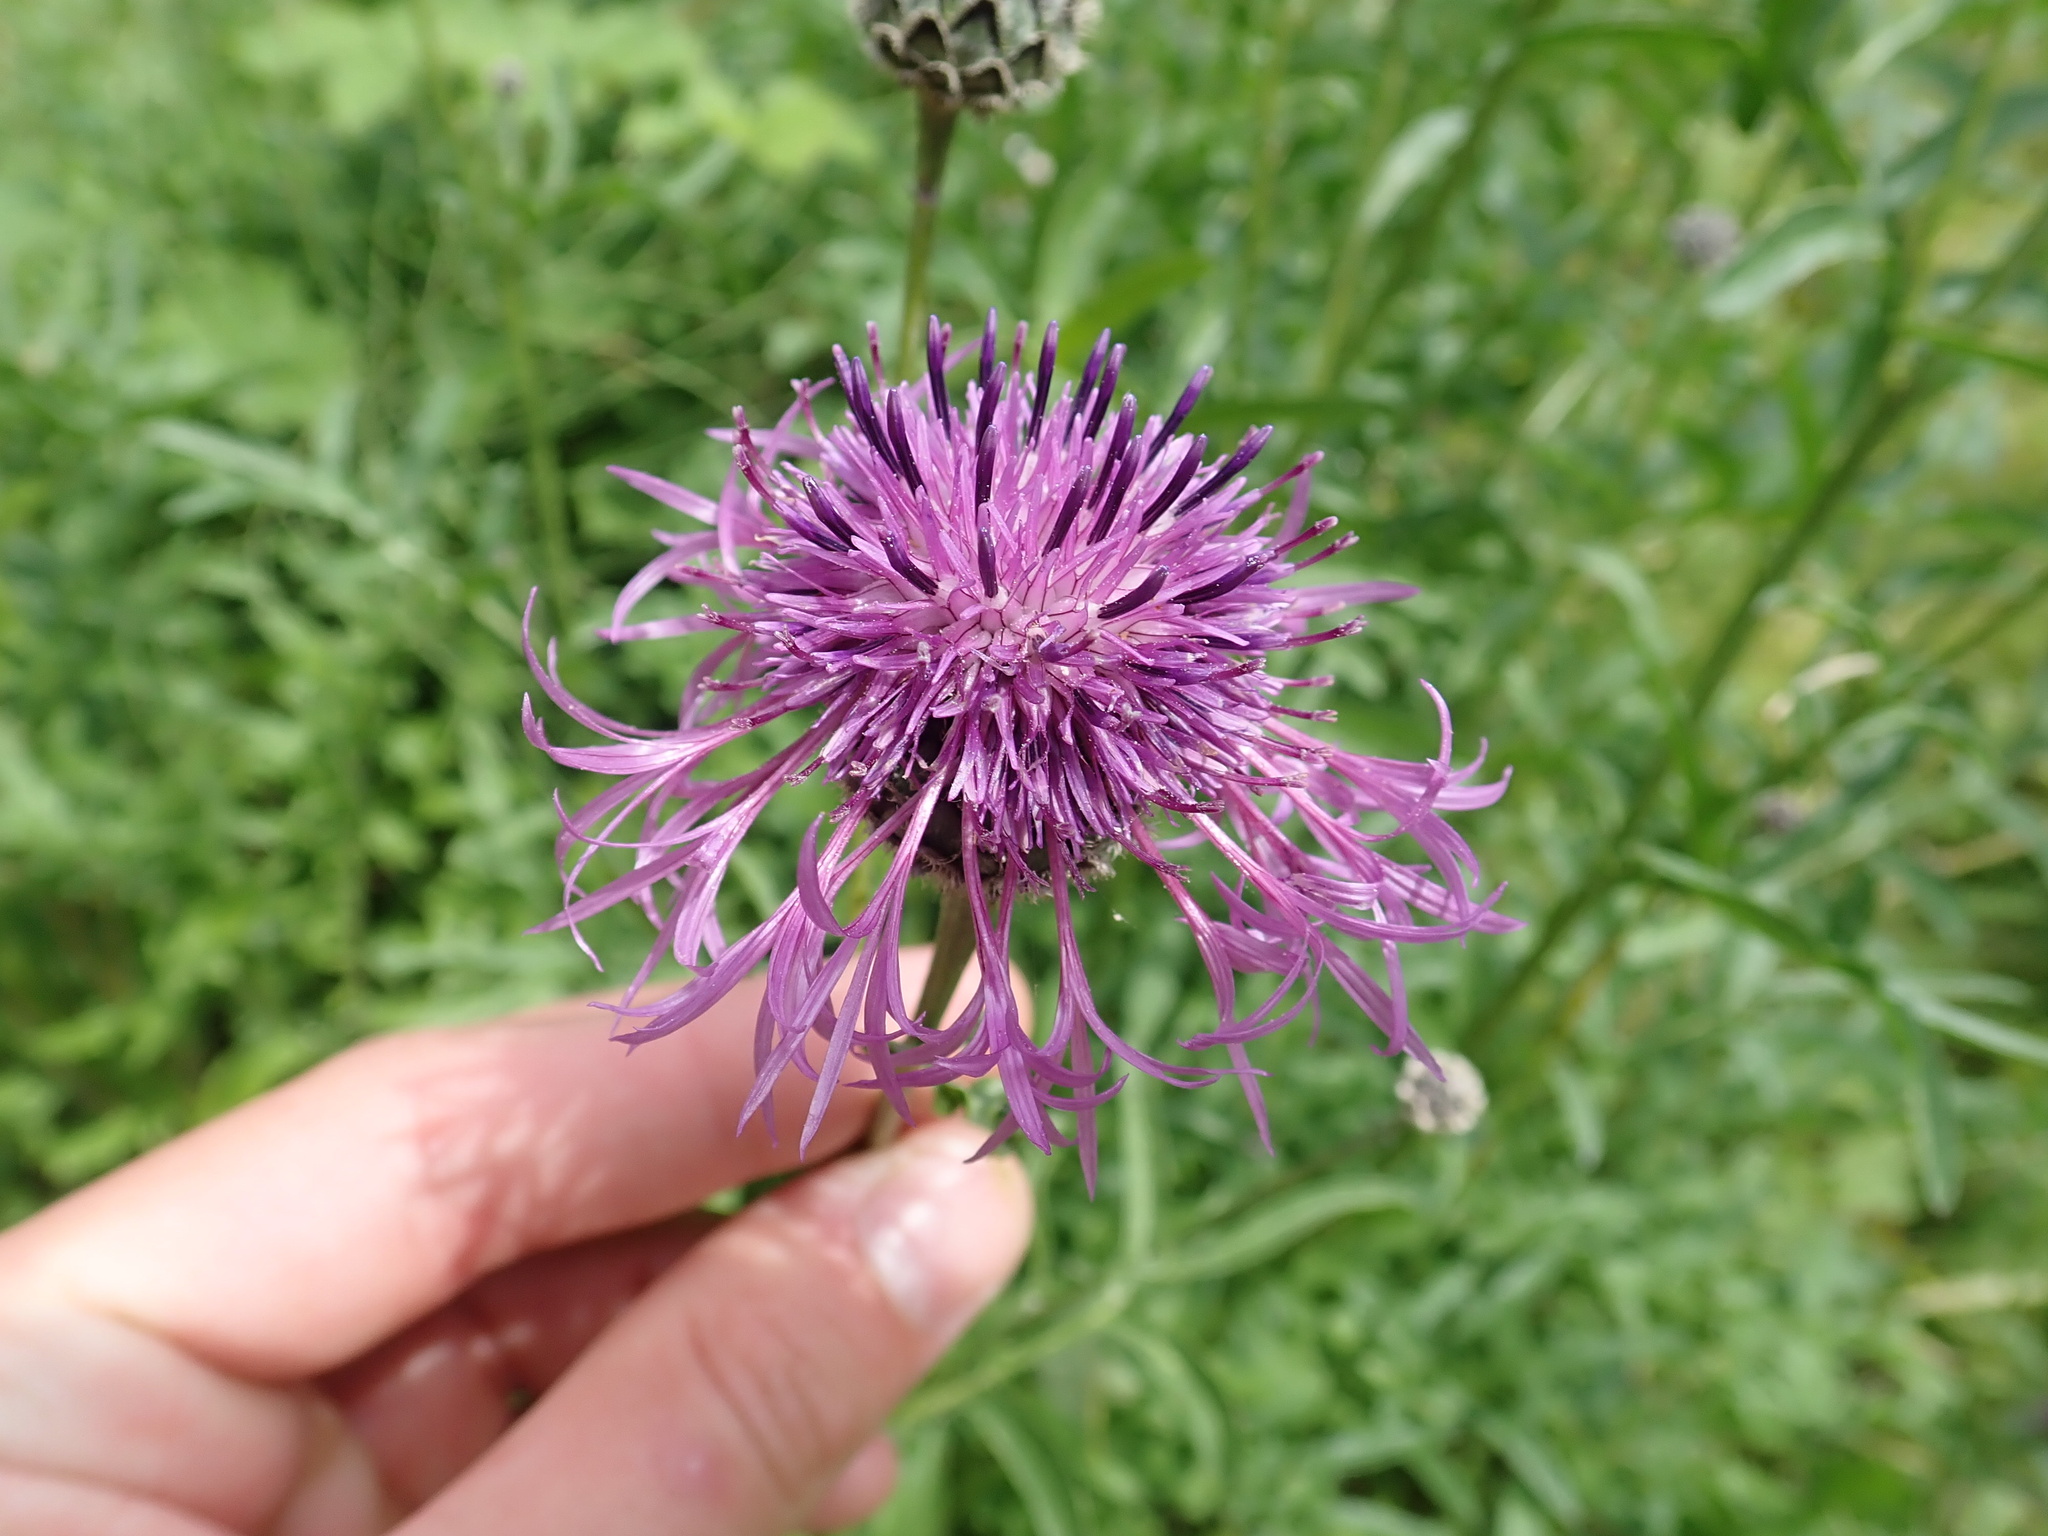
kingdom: Plantae
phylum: Tracheophyta
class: Magnoliopsida
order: Asterales
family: Asteraceae
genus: Centaurea
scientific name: Centaurea scabiosa
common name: Greater knapweed
